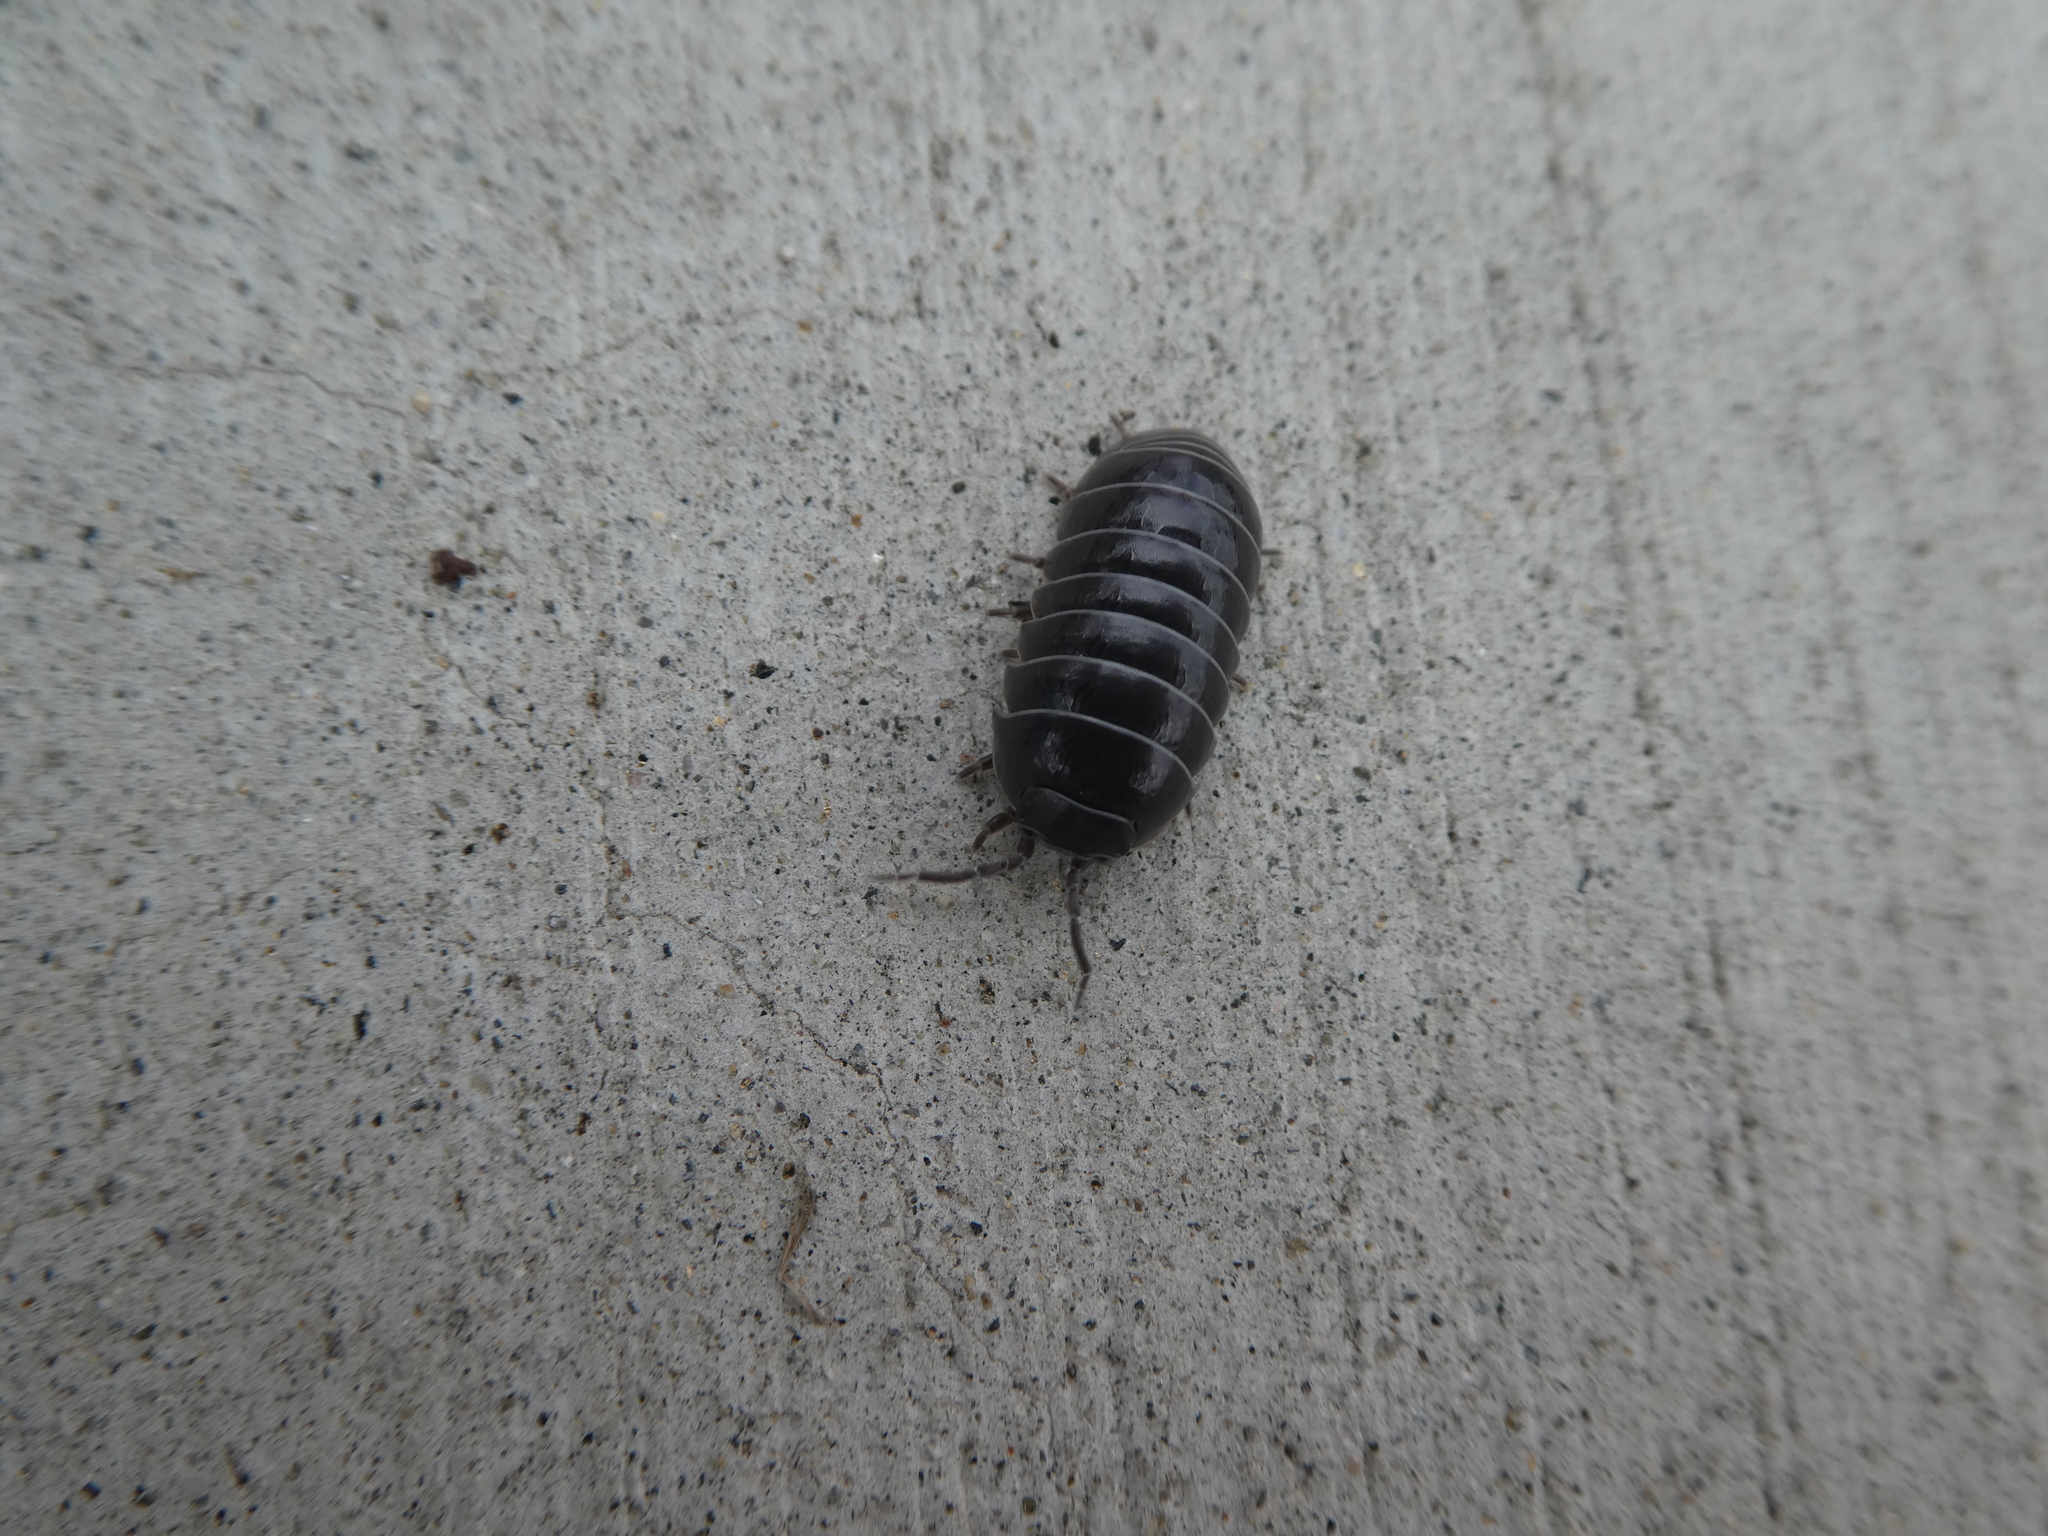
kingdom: Animalia
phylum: Arthropoda
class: Malacostraca
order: Isopoda
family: Armadillidiidae
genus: Armadillidium
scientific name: Armadillidium vulgare
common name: Common pill woodlouse
